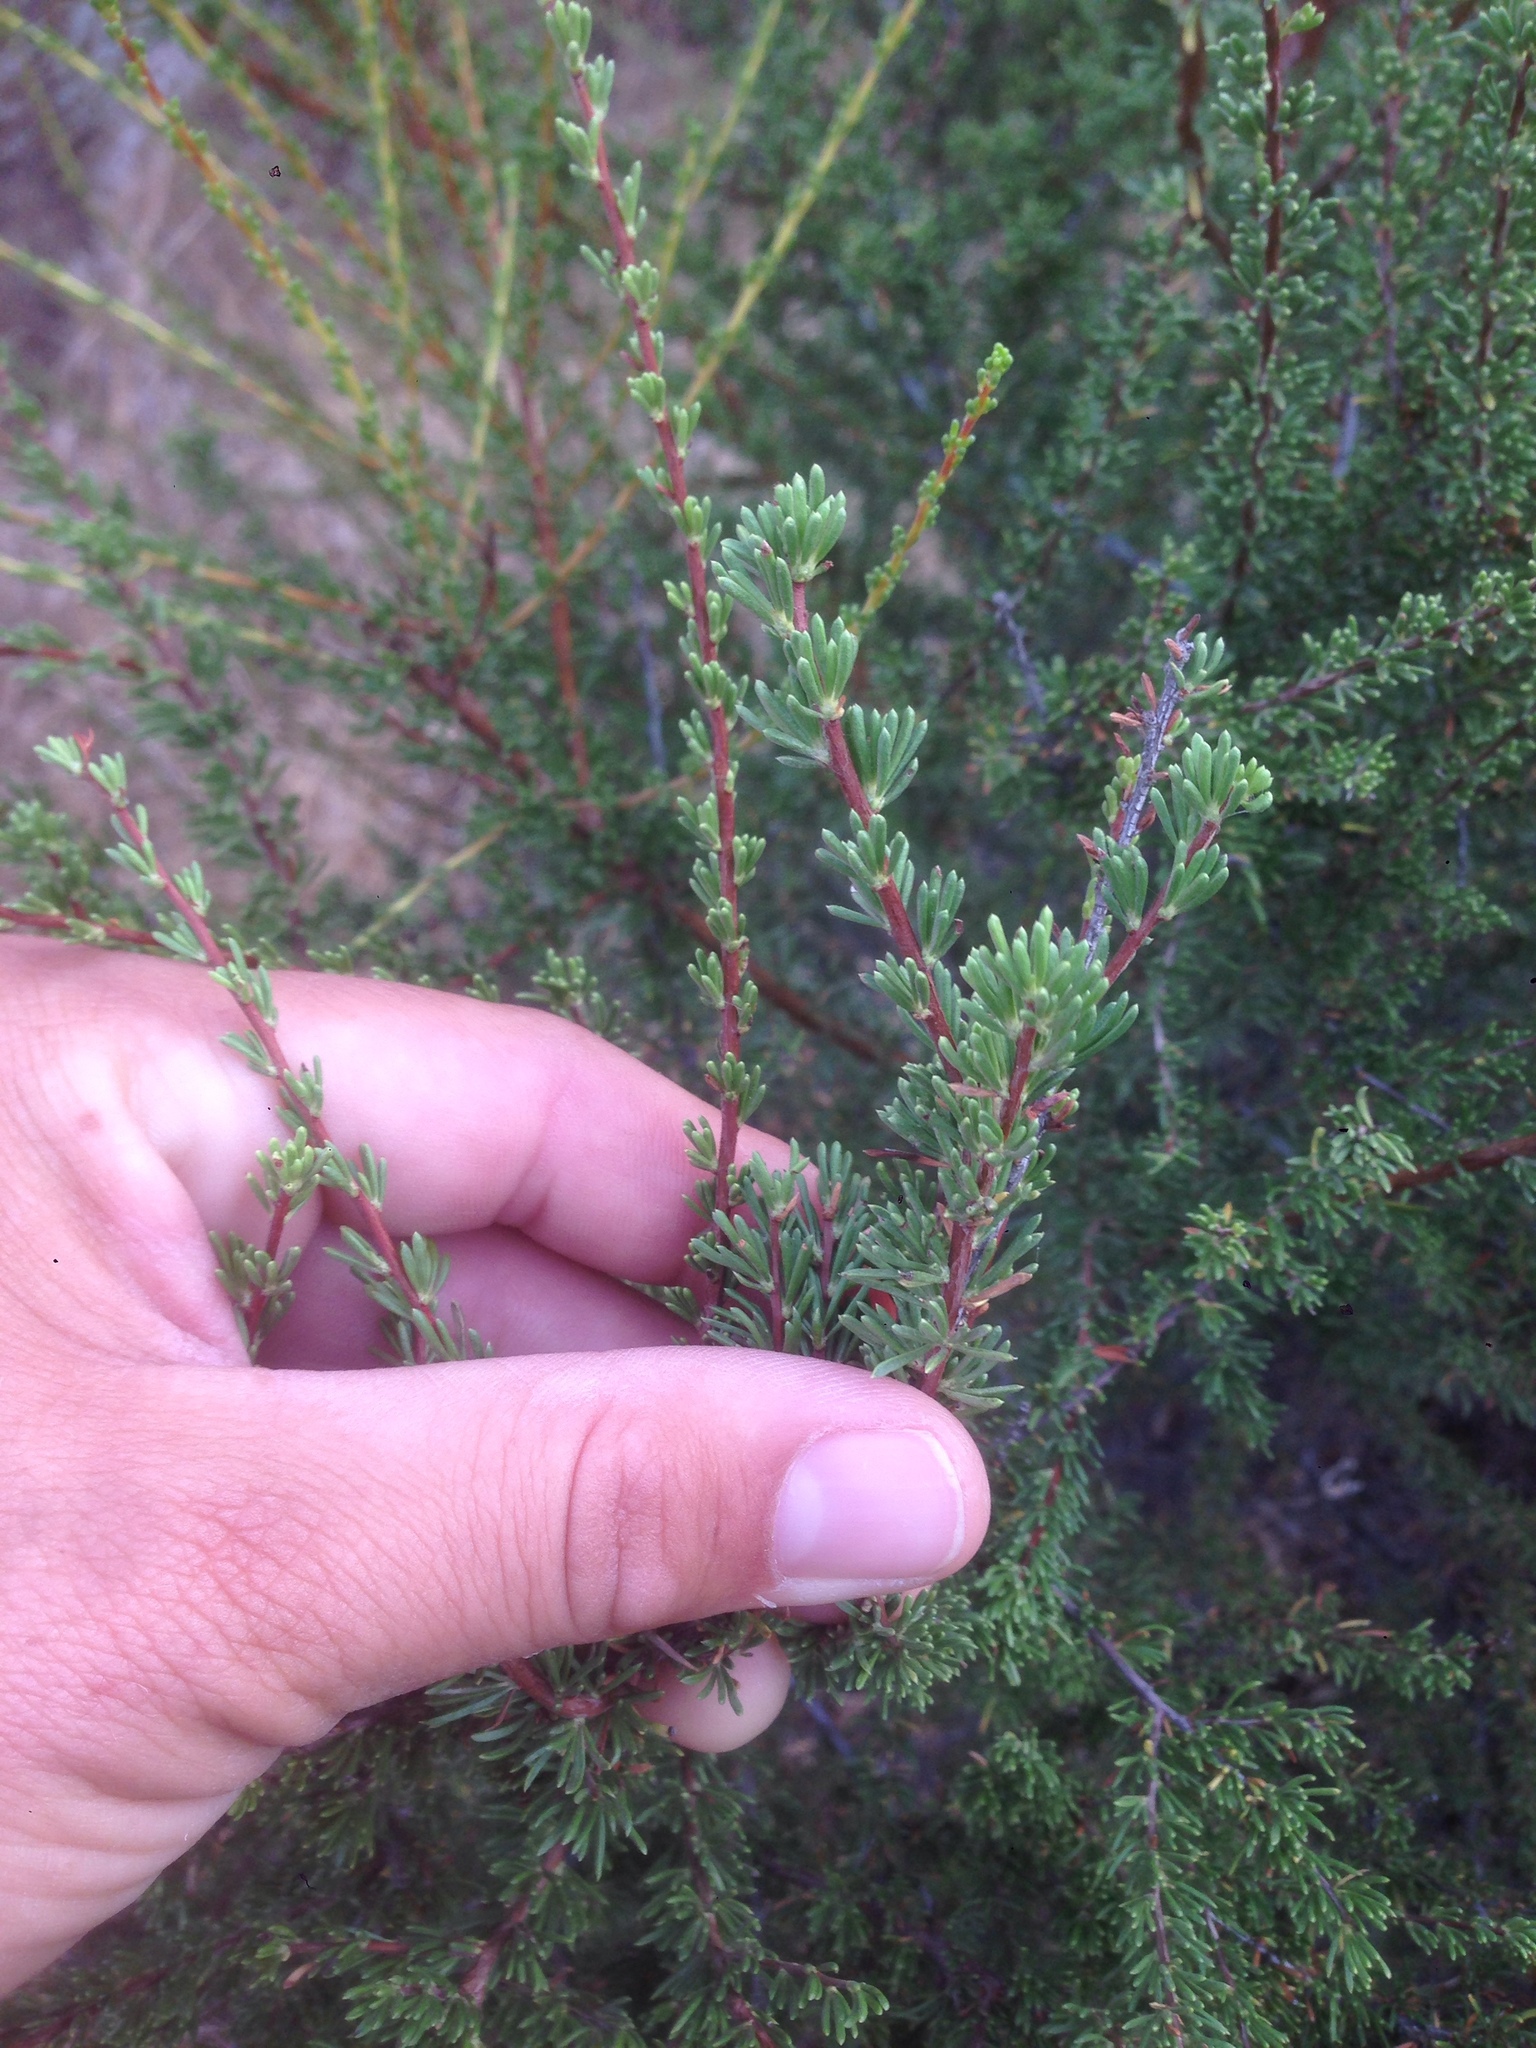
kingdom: Plantae
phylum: Tracheophyta
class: Magnoliopsida
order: Rosales
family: Rosaceae
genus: Adenostoma
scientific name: Adenostoma fasciculatum
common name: Chamise
